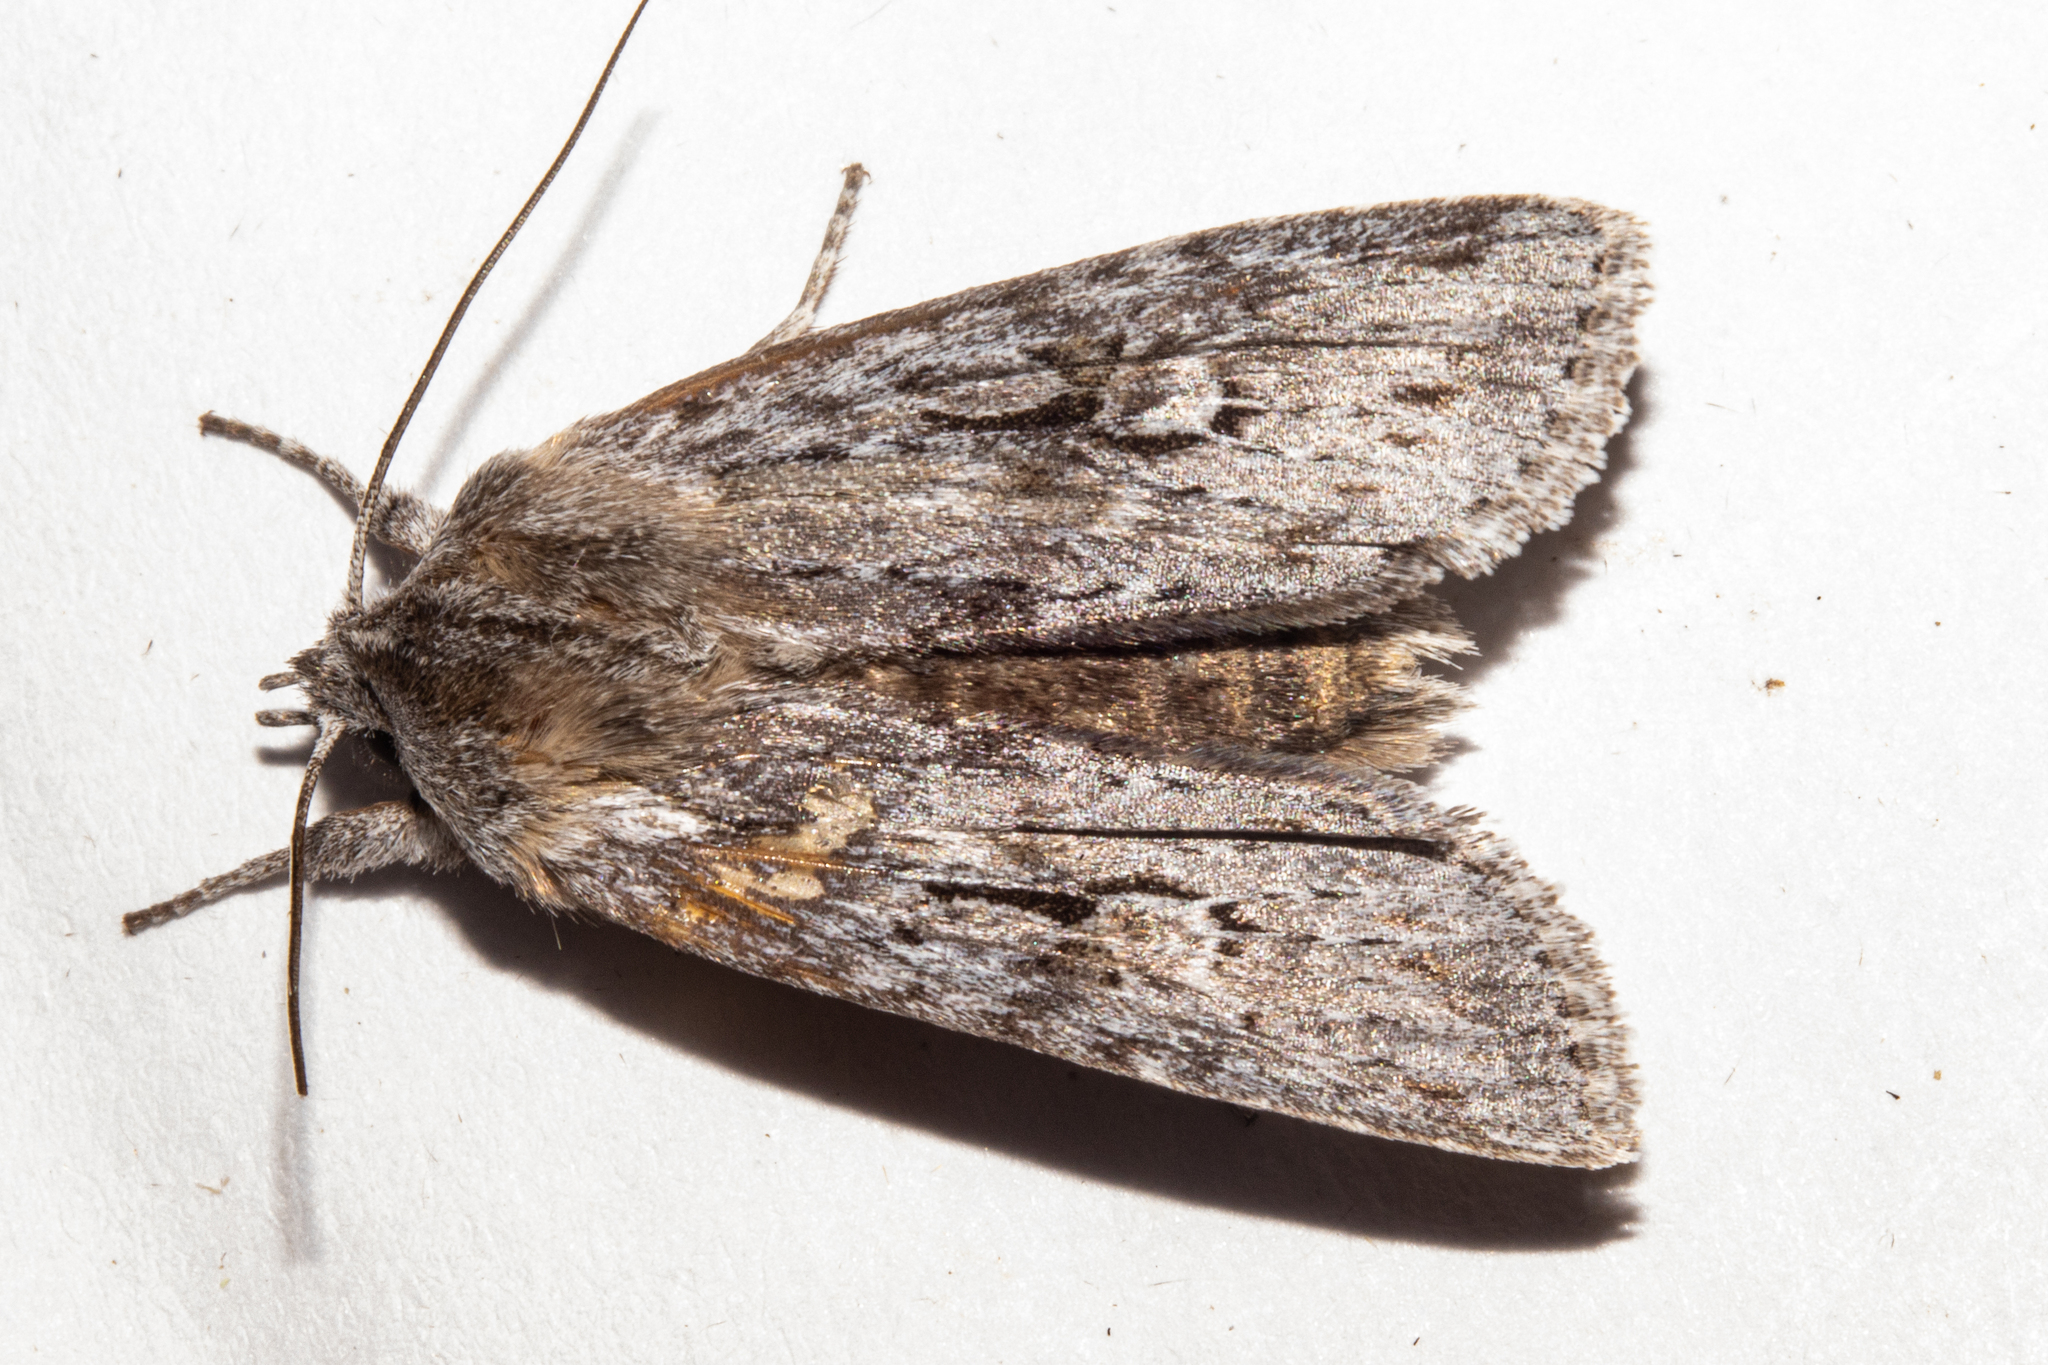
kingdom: Animalia
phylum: Arthropoda
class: Insecta
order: Lepidoptera
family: Noctuidae
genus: Physetica
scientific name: Physetica sequens
